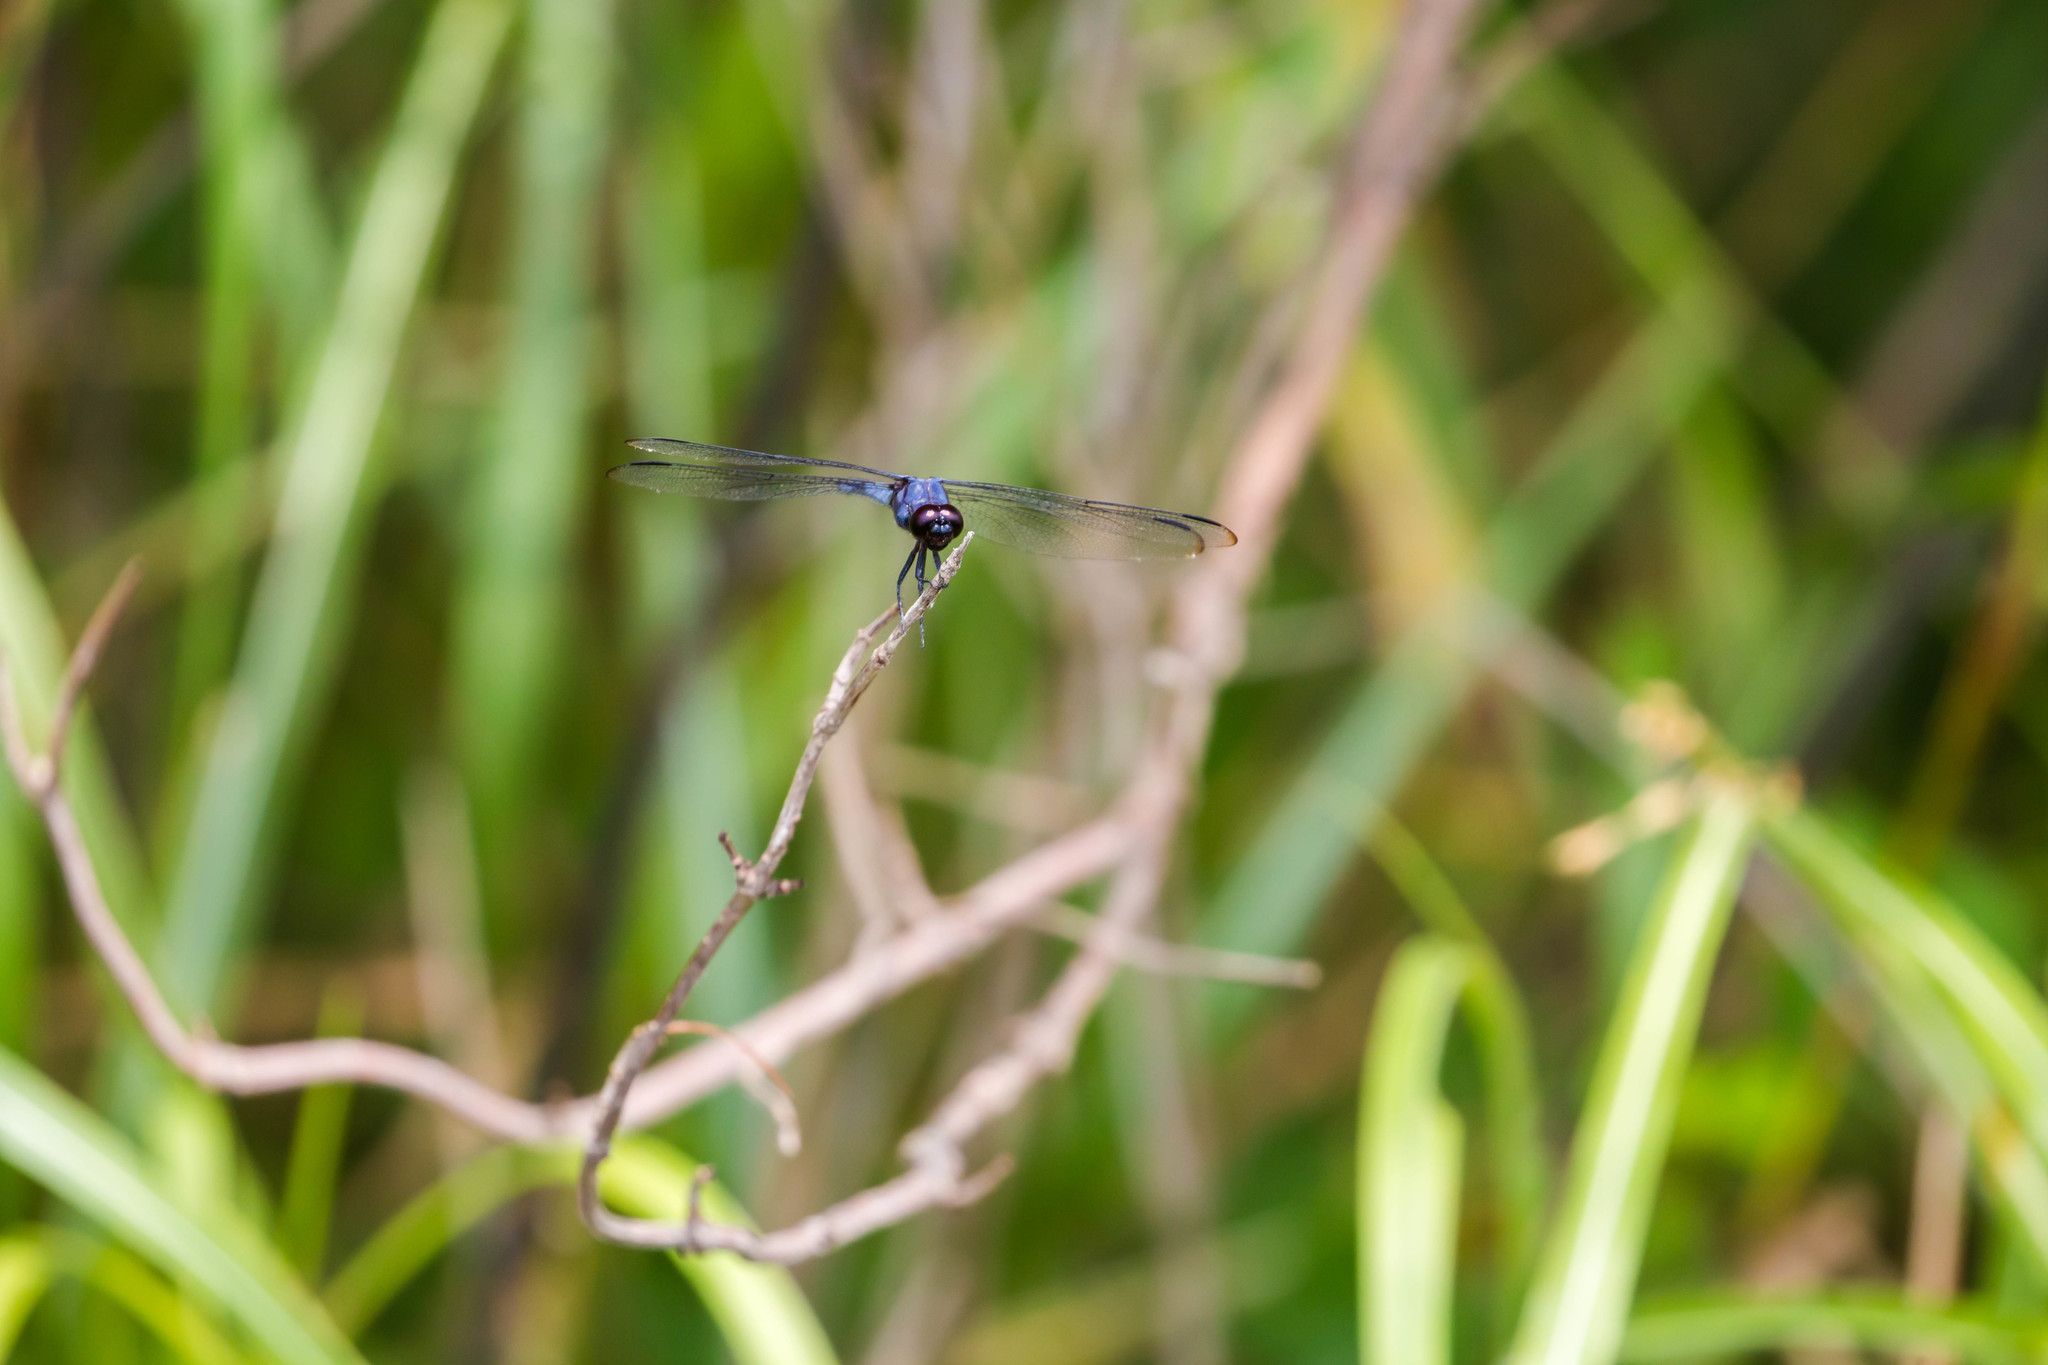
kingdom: Animalia
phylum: Arthropoda
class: Insecta
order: Odonata
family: Libellulidae
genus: Libellula
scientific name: Libellula incesta
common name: Slaty skimmer
